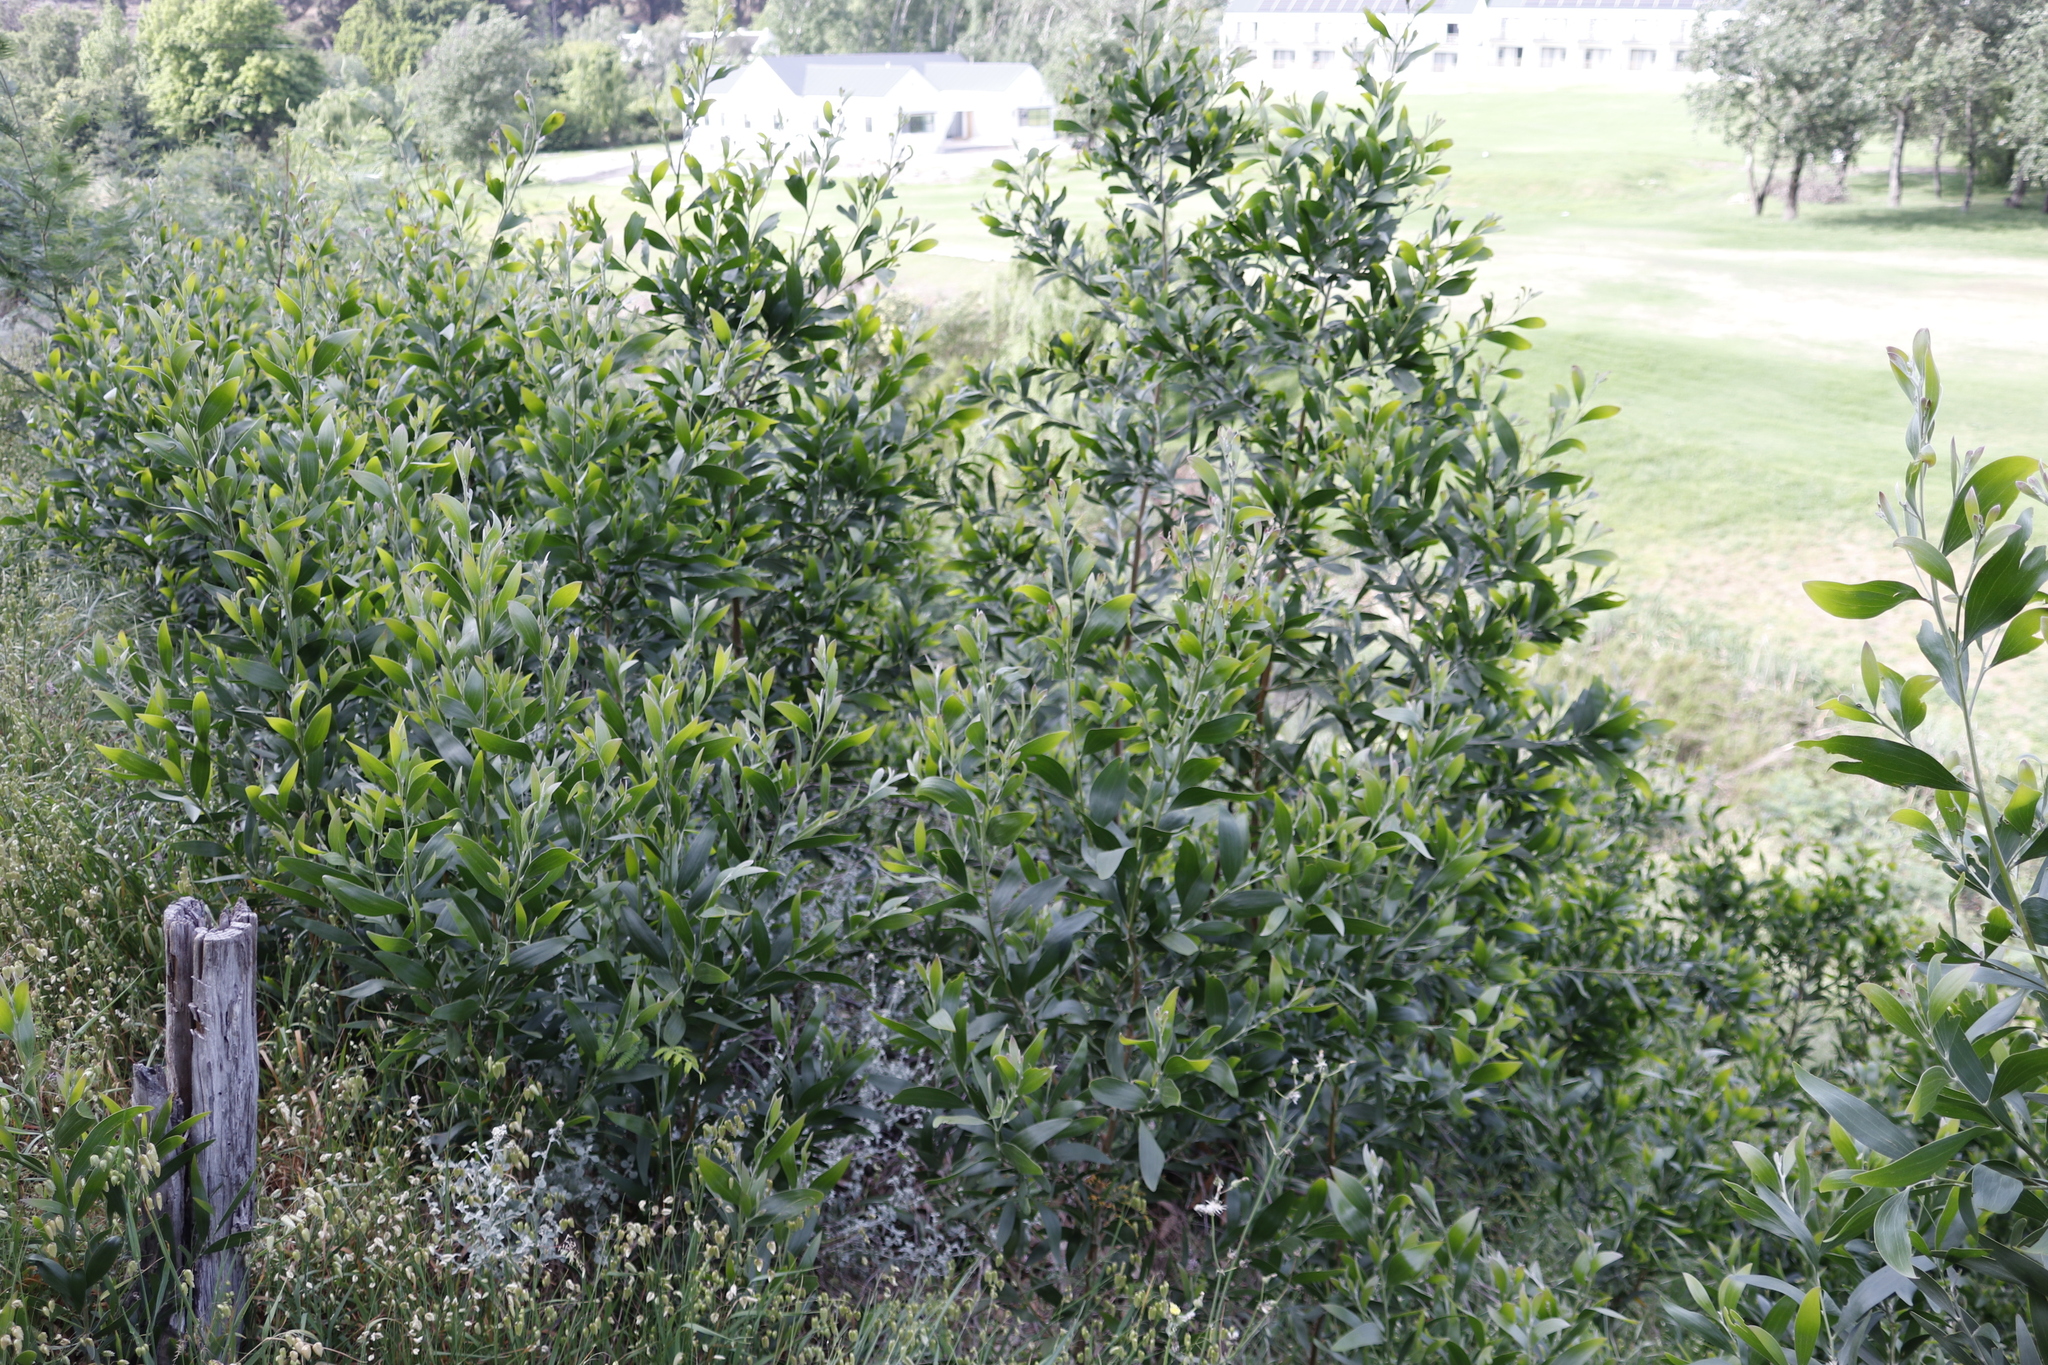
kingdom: Plantae
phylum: Tracheophyta
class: Magnoliopsida
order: Fabales
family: Fabaceae
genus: Acacia
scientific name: Acacia melanoxylon
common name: Blackwood
